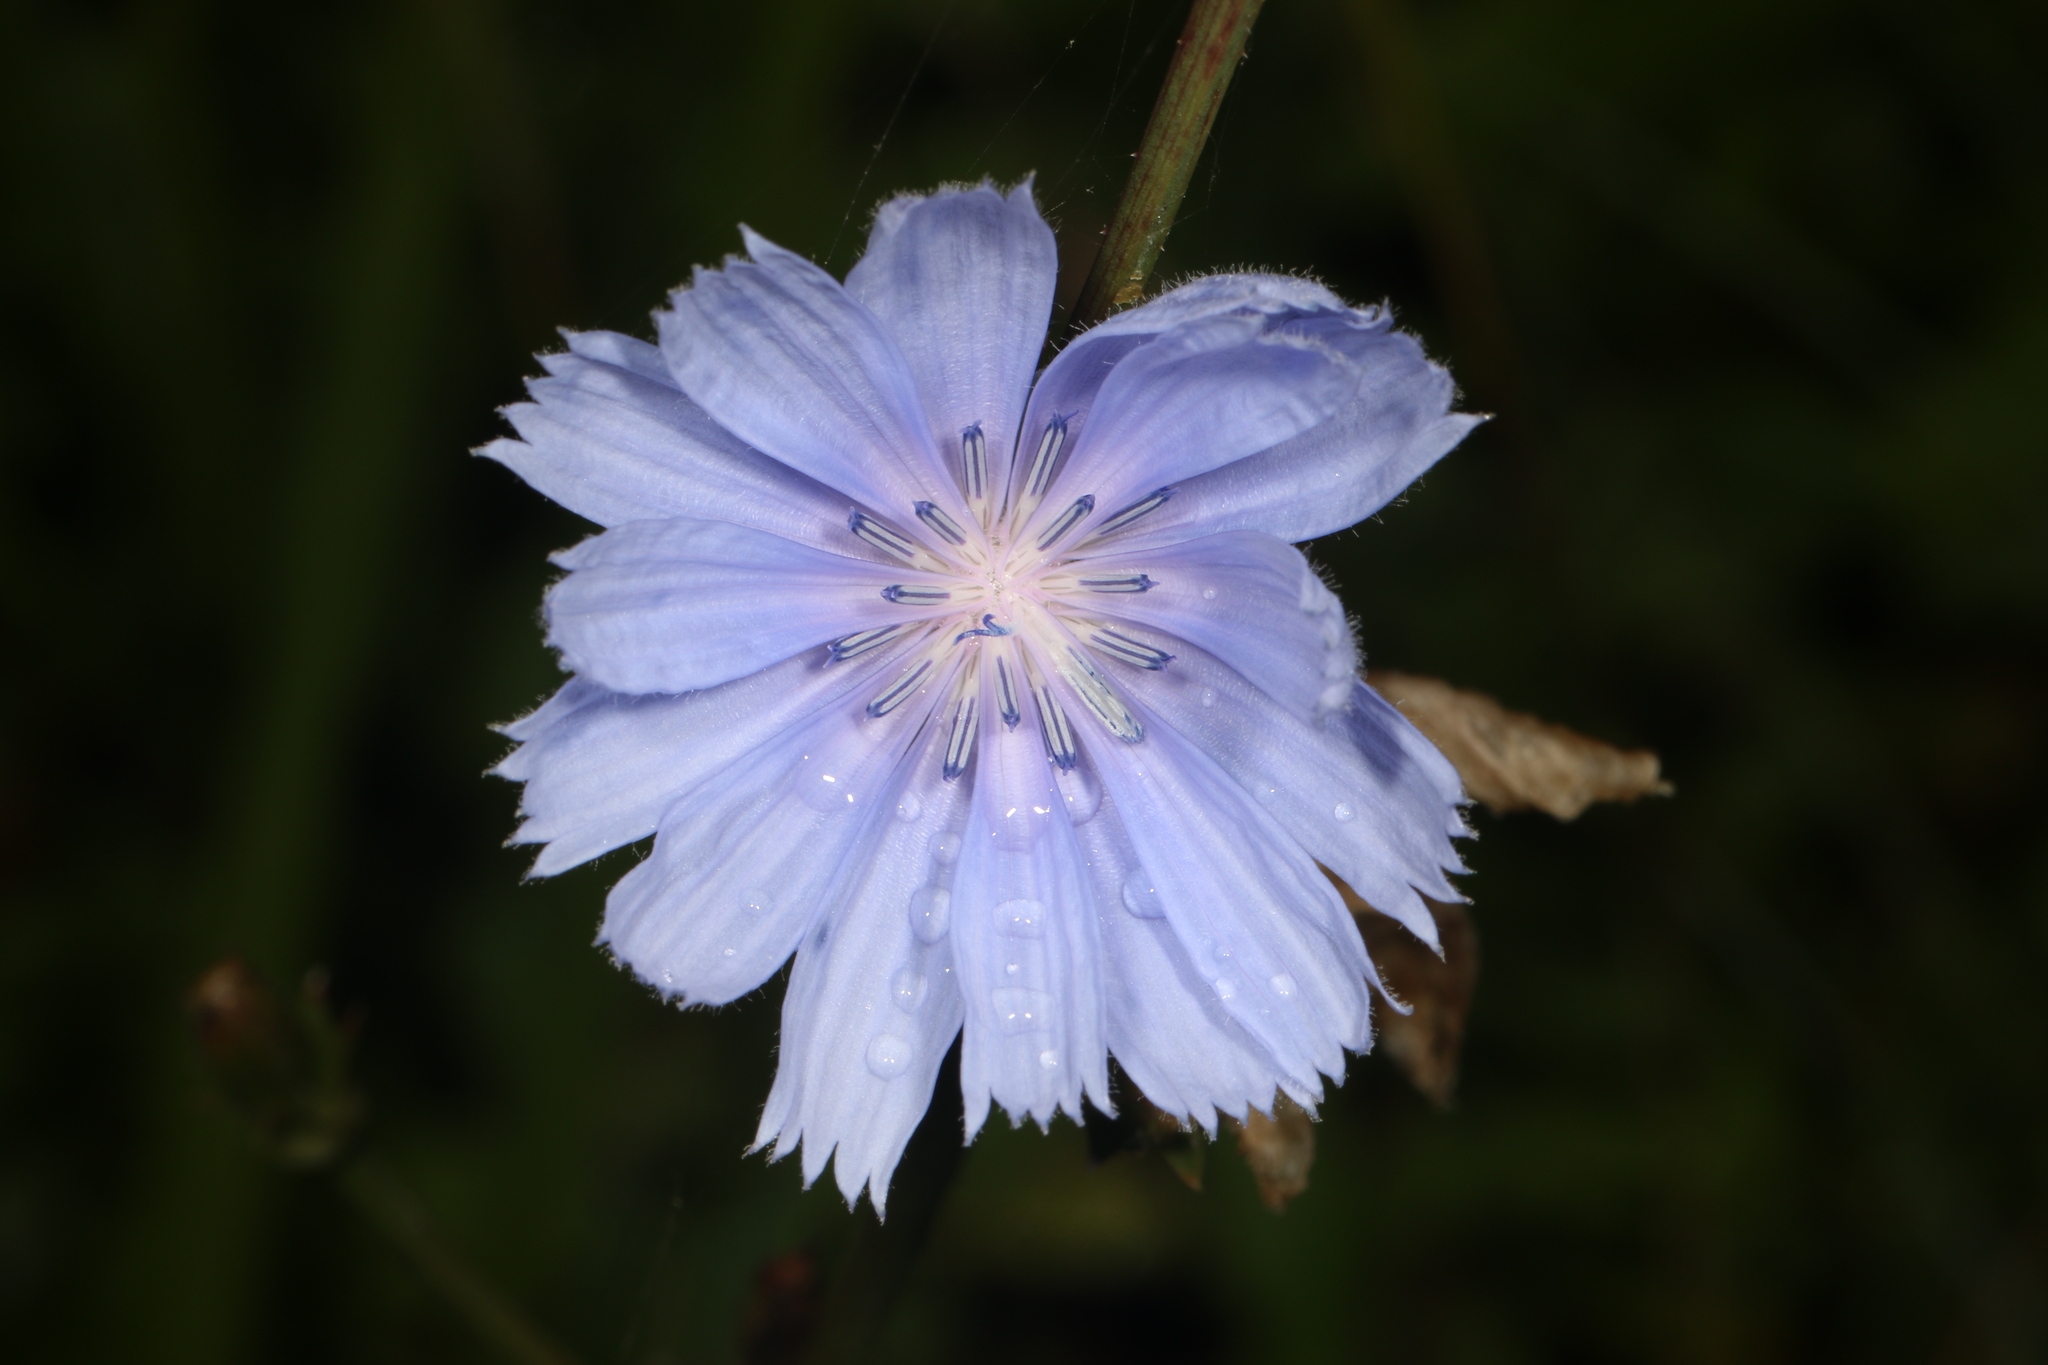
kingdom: Plantae
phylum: Tracheophyta
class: Magnoliopsida
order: Asterales
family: Asteraceae
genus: Cichorium
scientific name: Cichorium intybus
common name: Chicory
